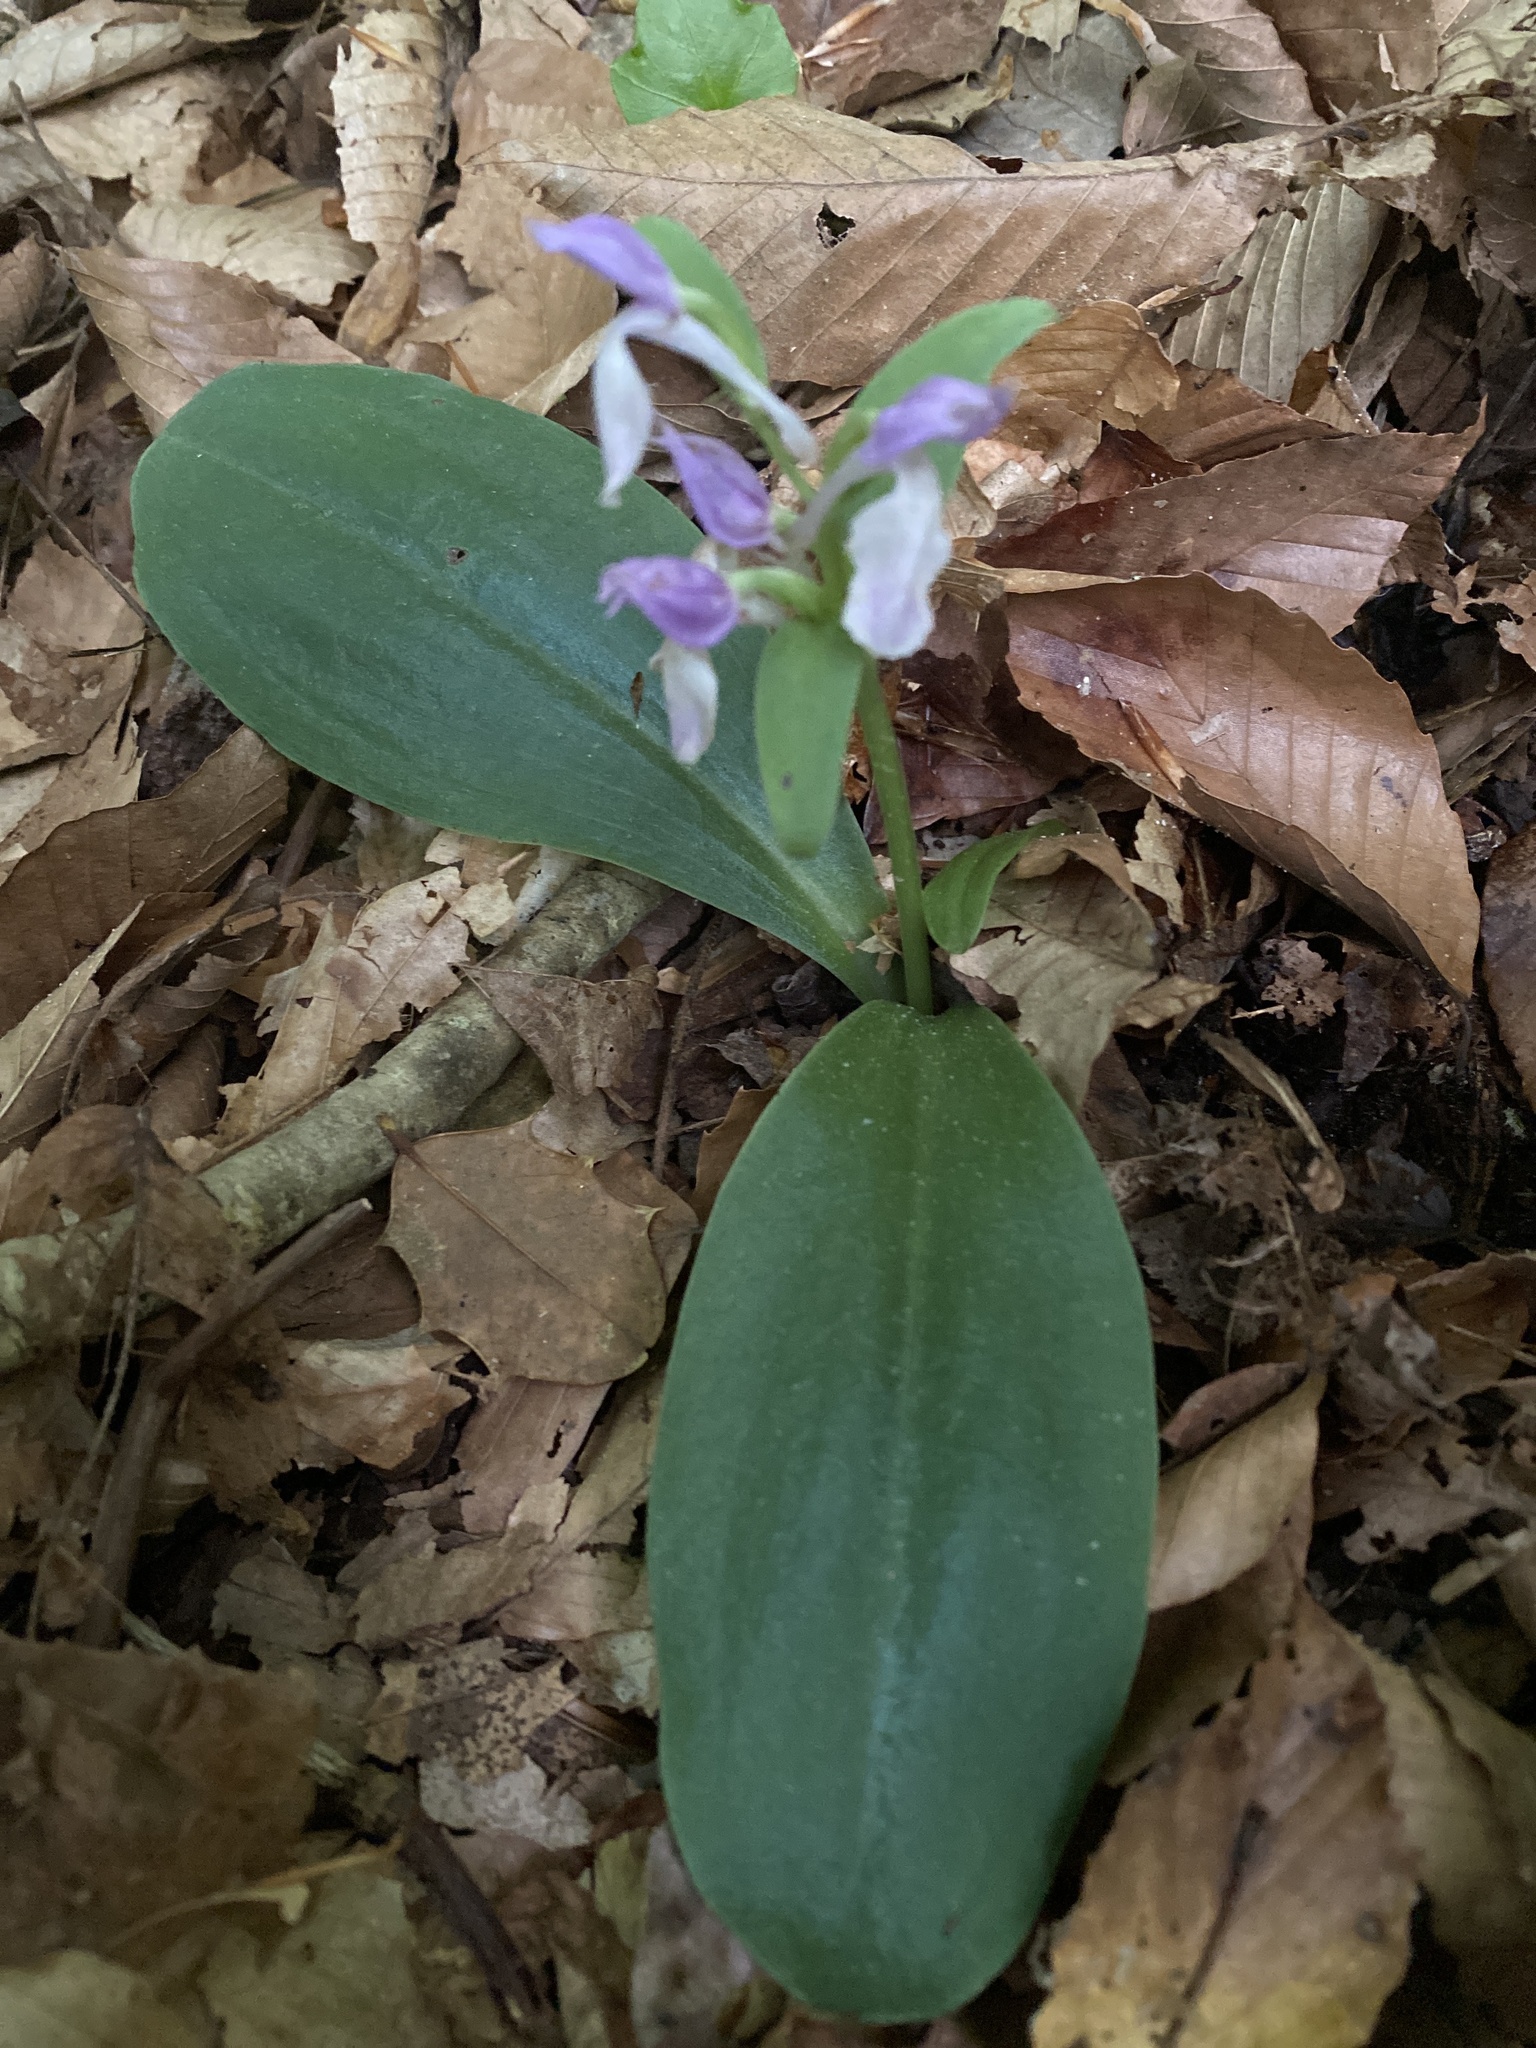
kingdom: Plantae
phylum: Tracheophyta
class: Liliopsida
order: Asparagales
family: Orchidaceae
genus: Galearis
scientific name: Galearis spectabilis
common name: Purple-hooded orchis
